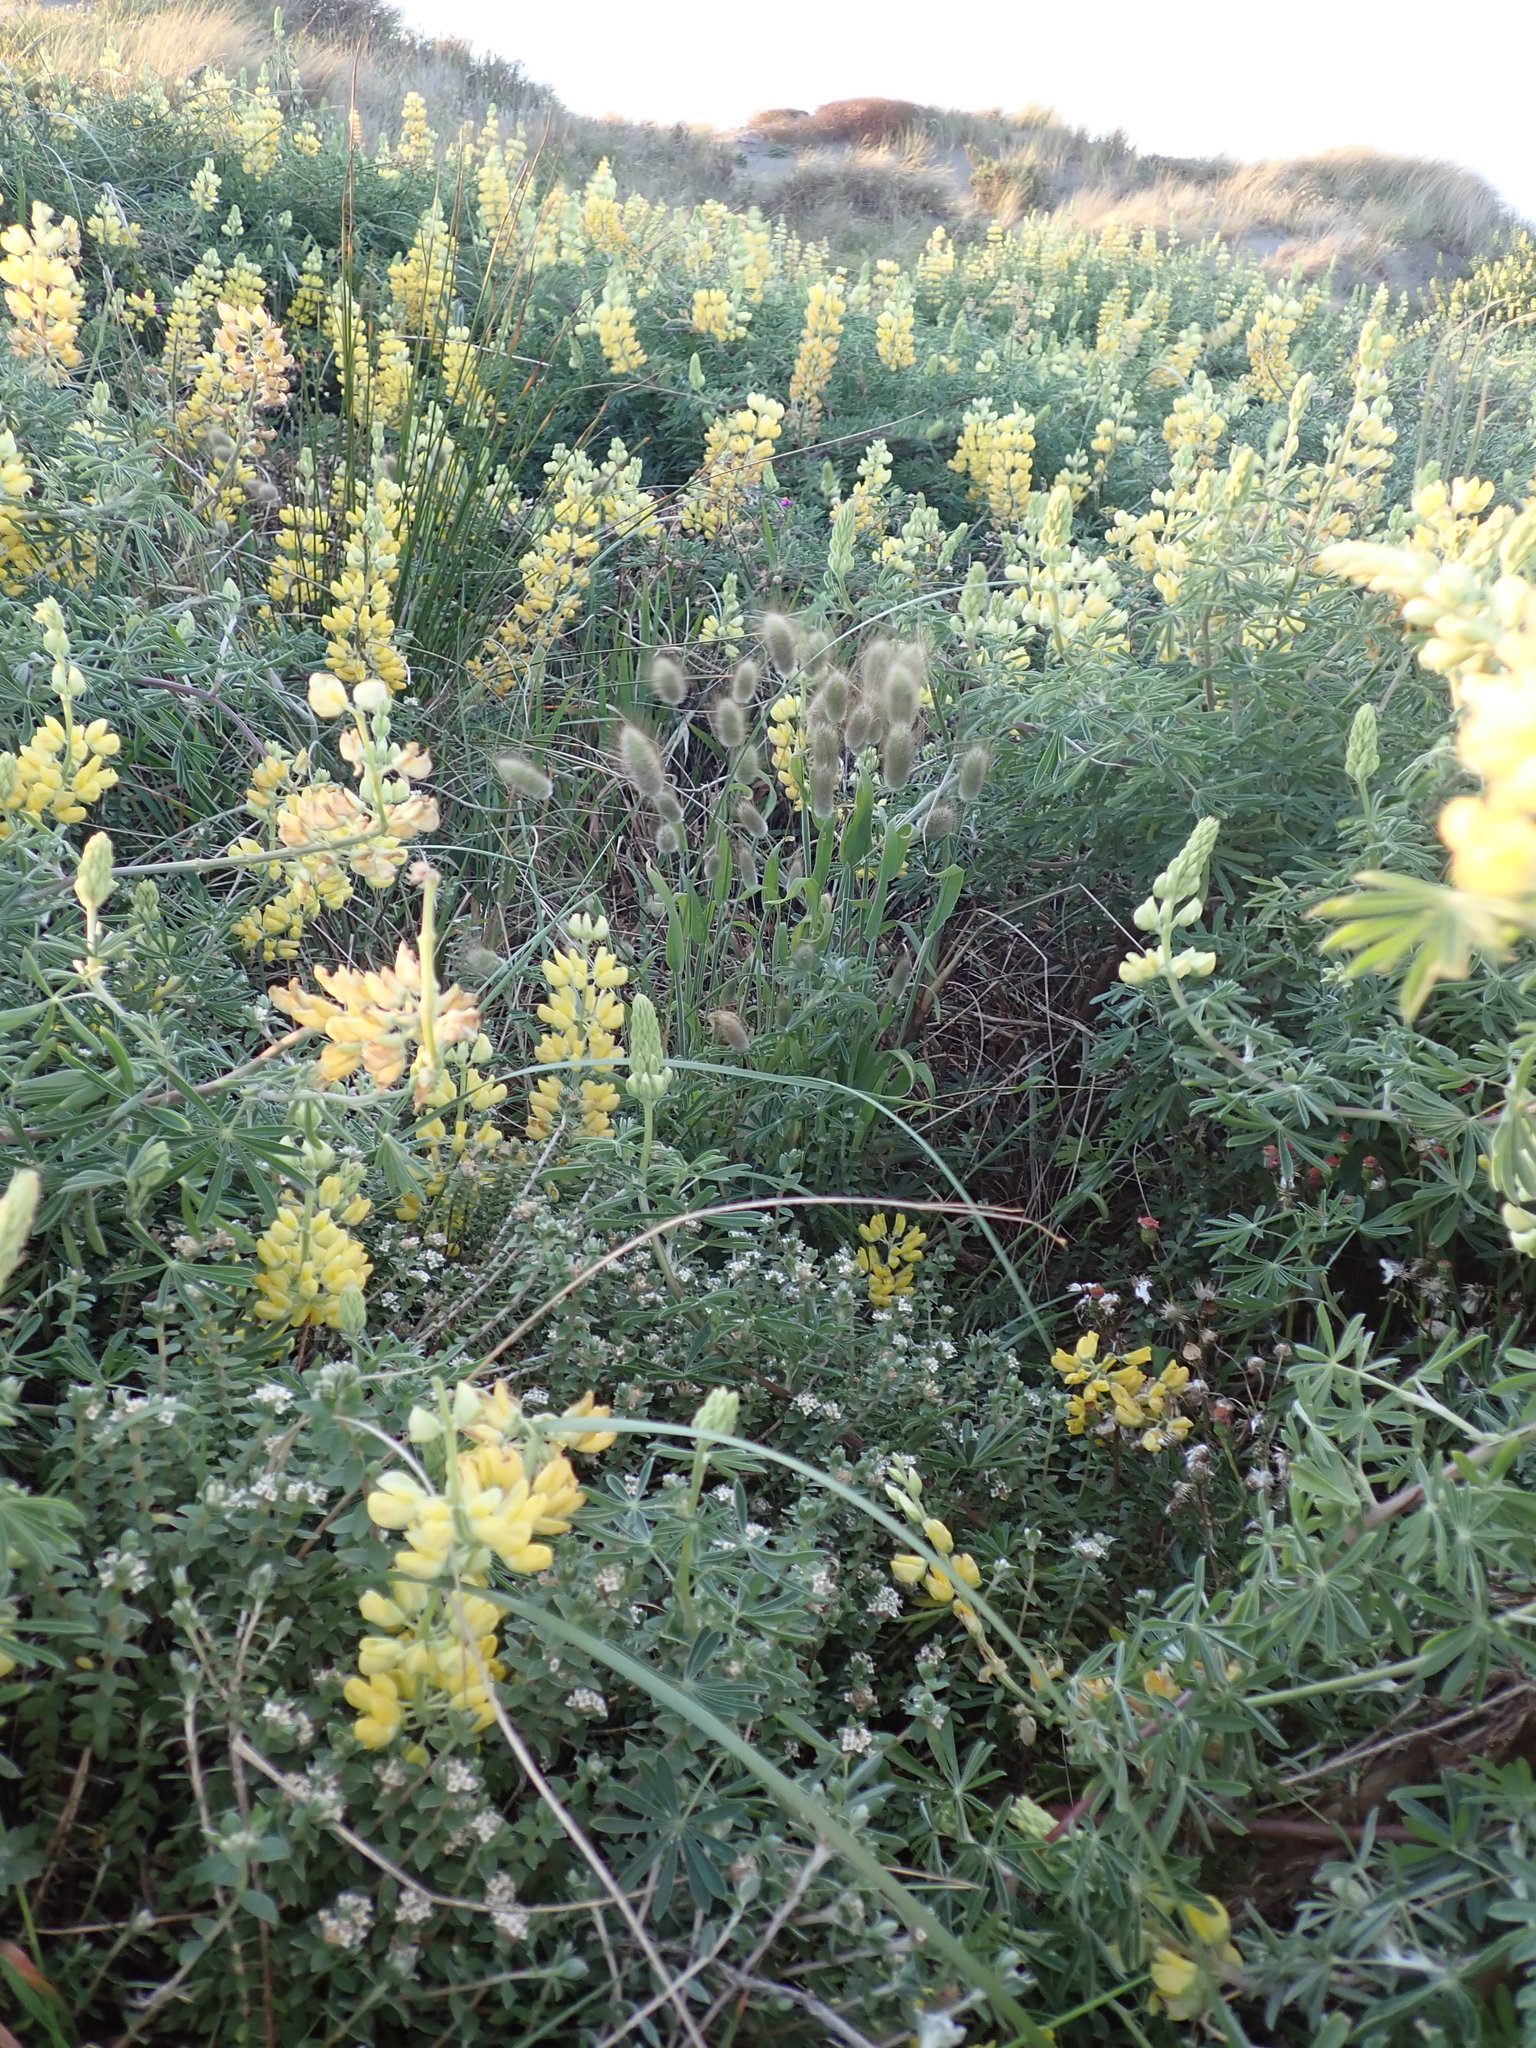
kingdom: Plantae
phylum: Tracheophyta
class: Magnoliopsida
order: Malvales
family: Thymelaeaceae
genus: Pimelea
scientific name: Pimelea villosa
